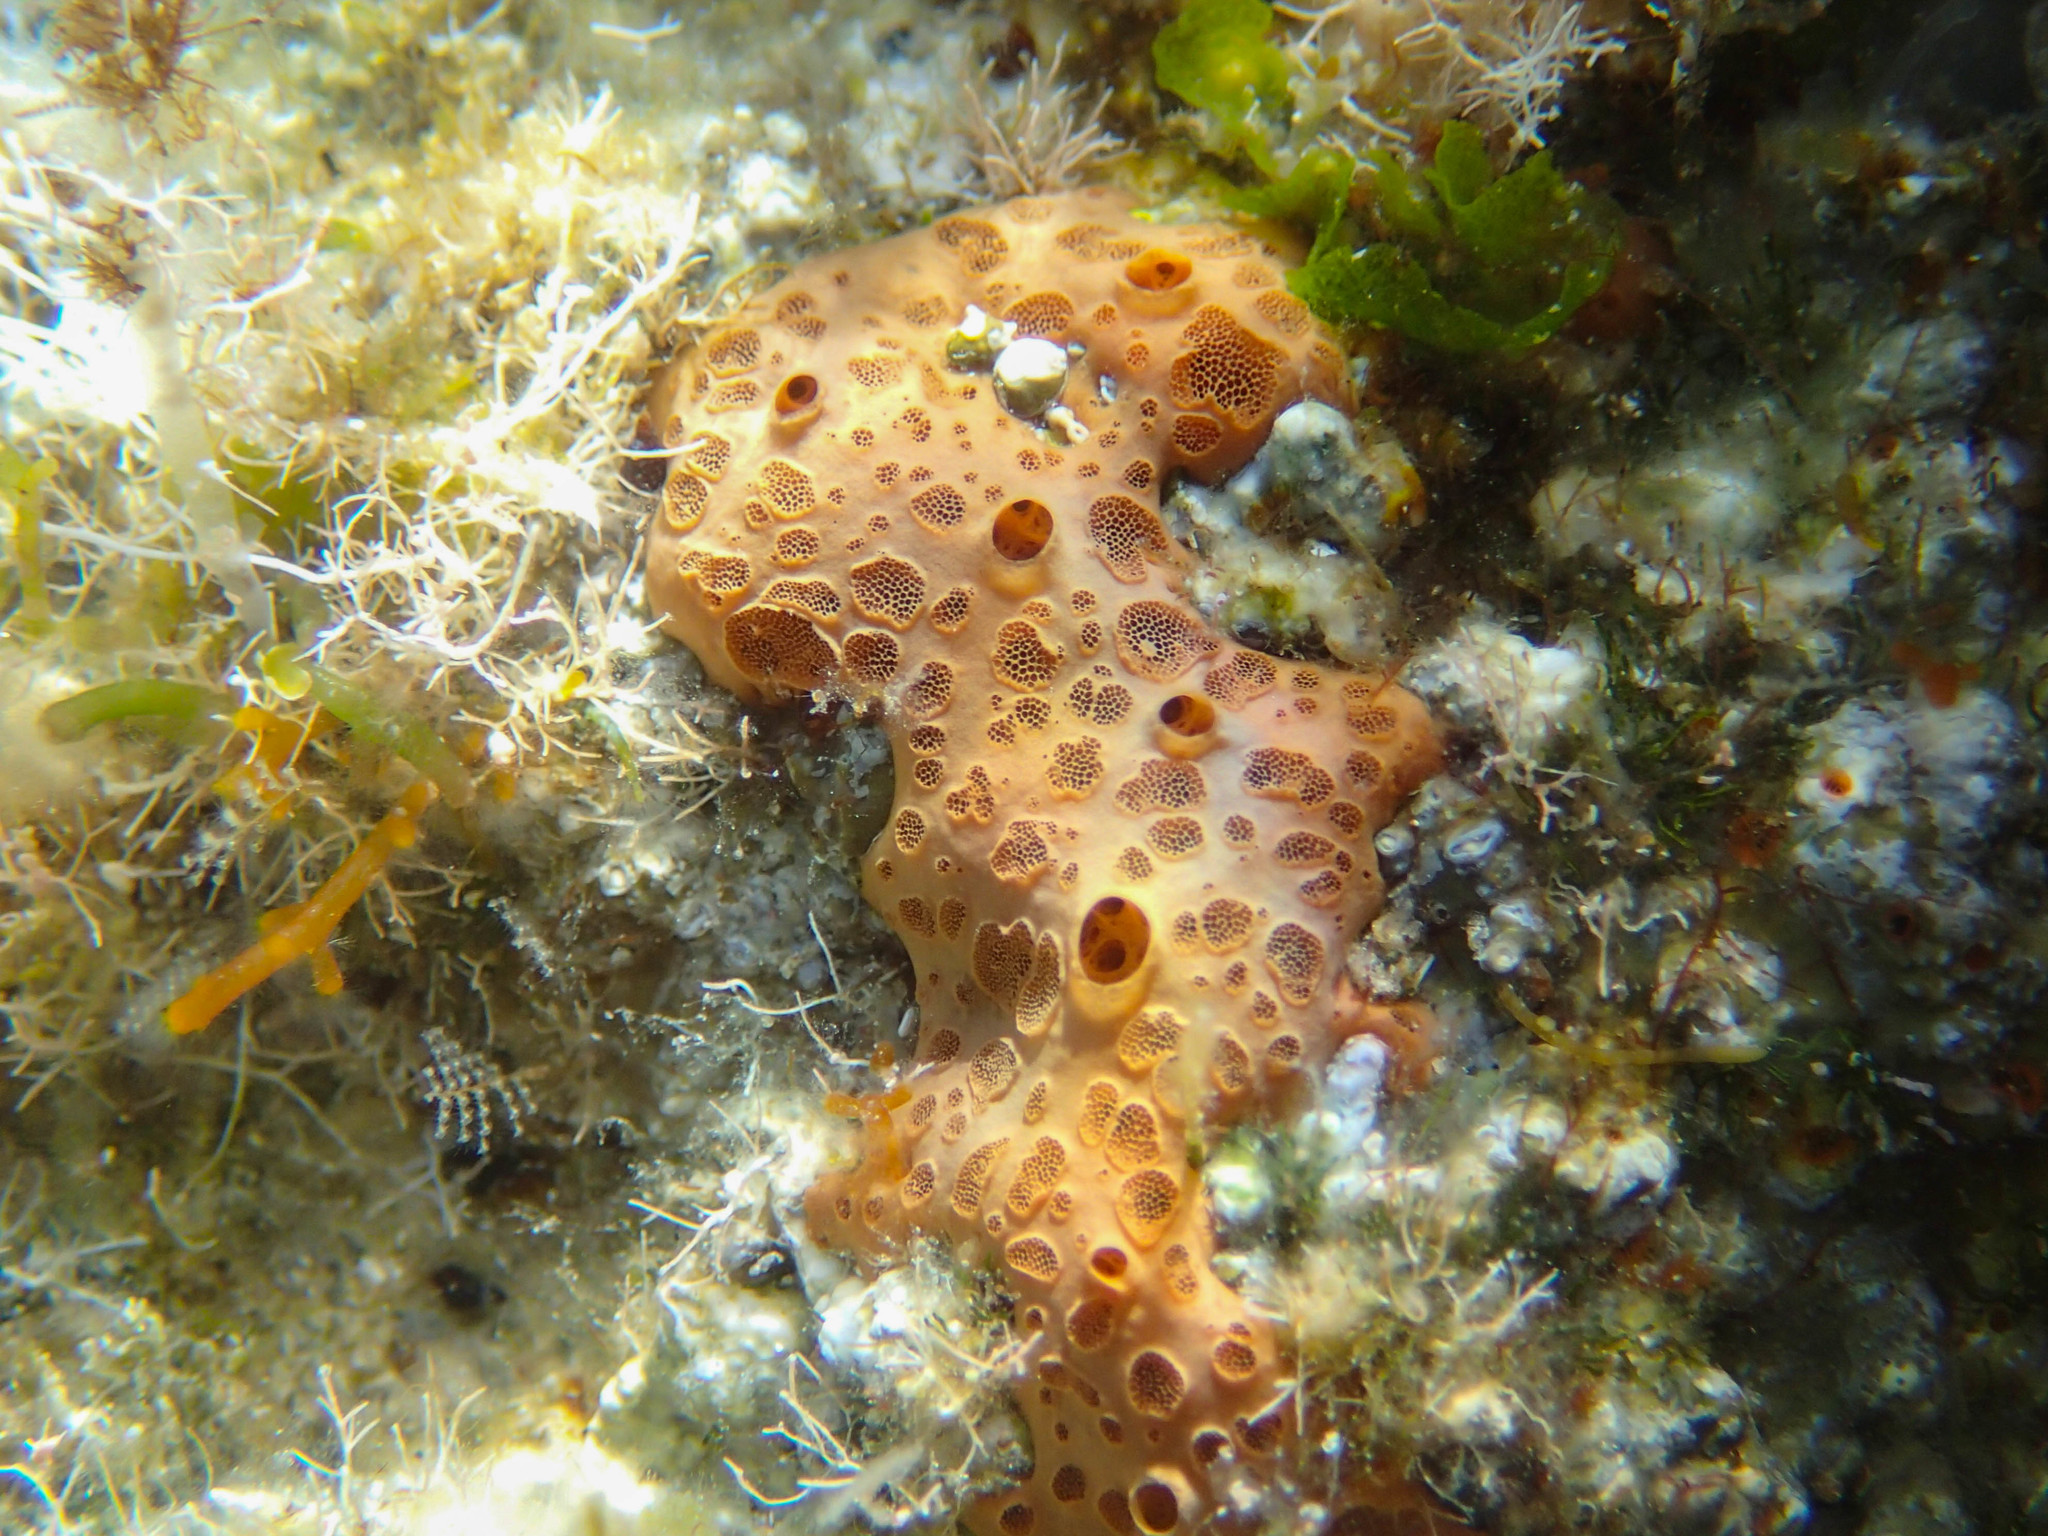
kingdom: Animalia
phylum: Porifera
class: Demospongiae
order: Poecilosclerida
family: Hymedesmiidae
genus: Hemimycale
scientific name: Hemimycale columella
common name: Crater sponge
